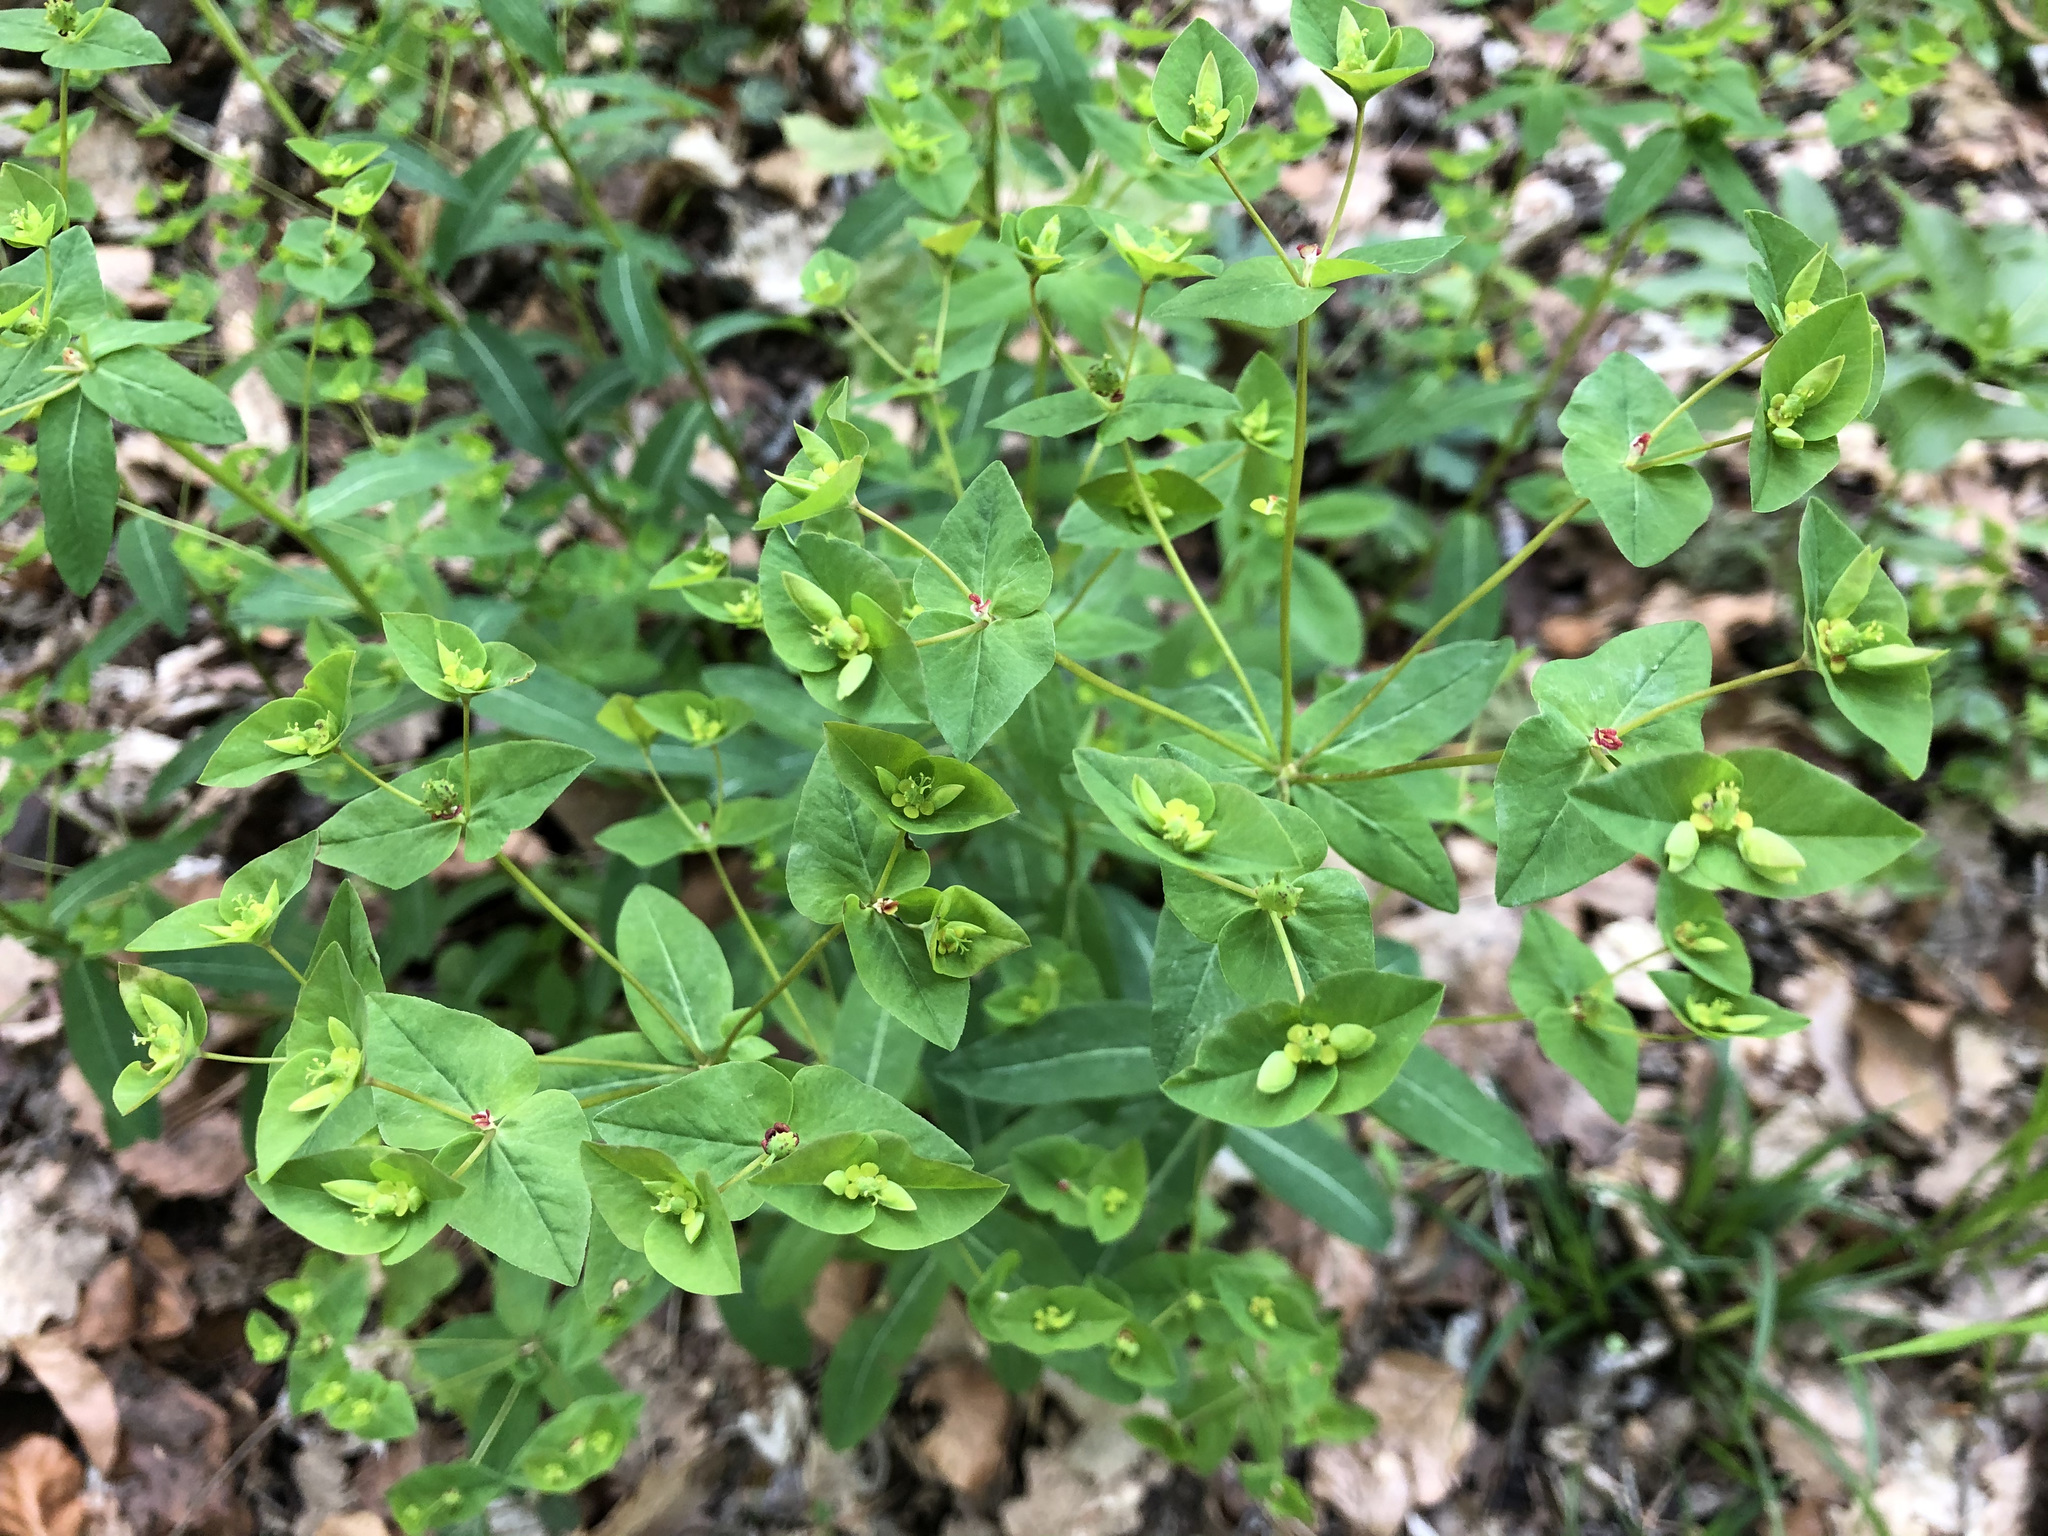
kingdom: Plantae
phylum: Tracheophyta
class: Magnoliopsida
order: Malpighiales
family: Euphorbiaceae
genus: Euphorbia
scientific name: Euphorbia dulcis
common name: Sweet spurge
